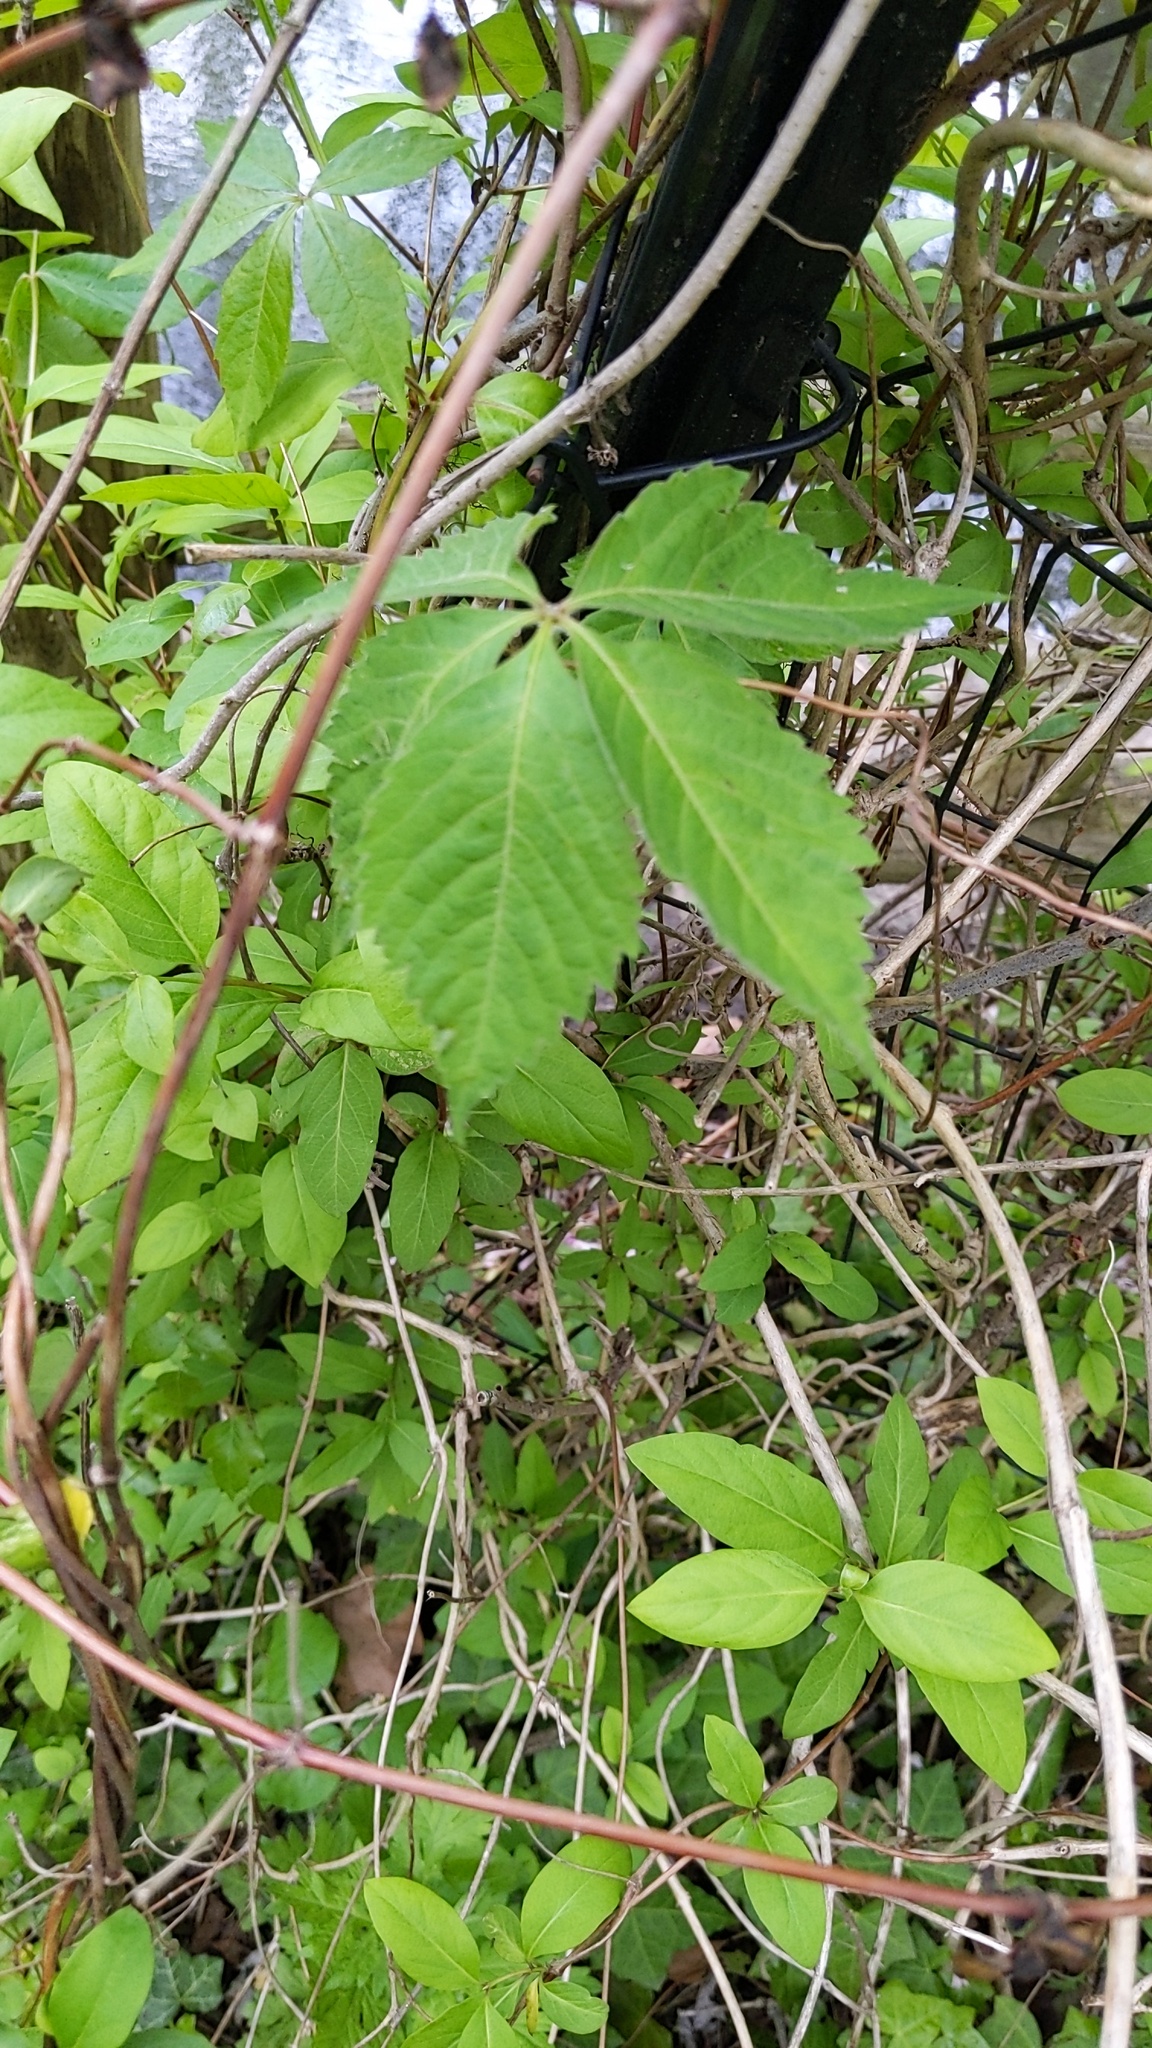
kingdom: Plantae
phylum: Tracheophyta
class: Magnoliopsida
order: Vitales
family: Vitaceae
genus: Parthenocissus
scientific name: Parthenocissus quinquefolia
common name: Virginia-creeper
